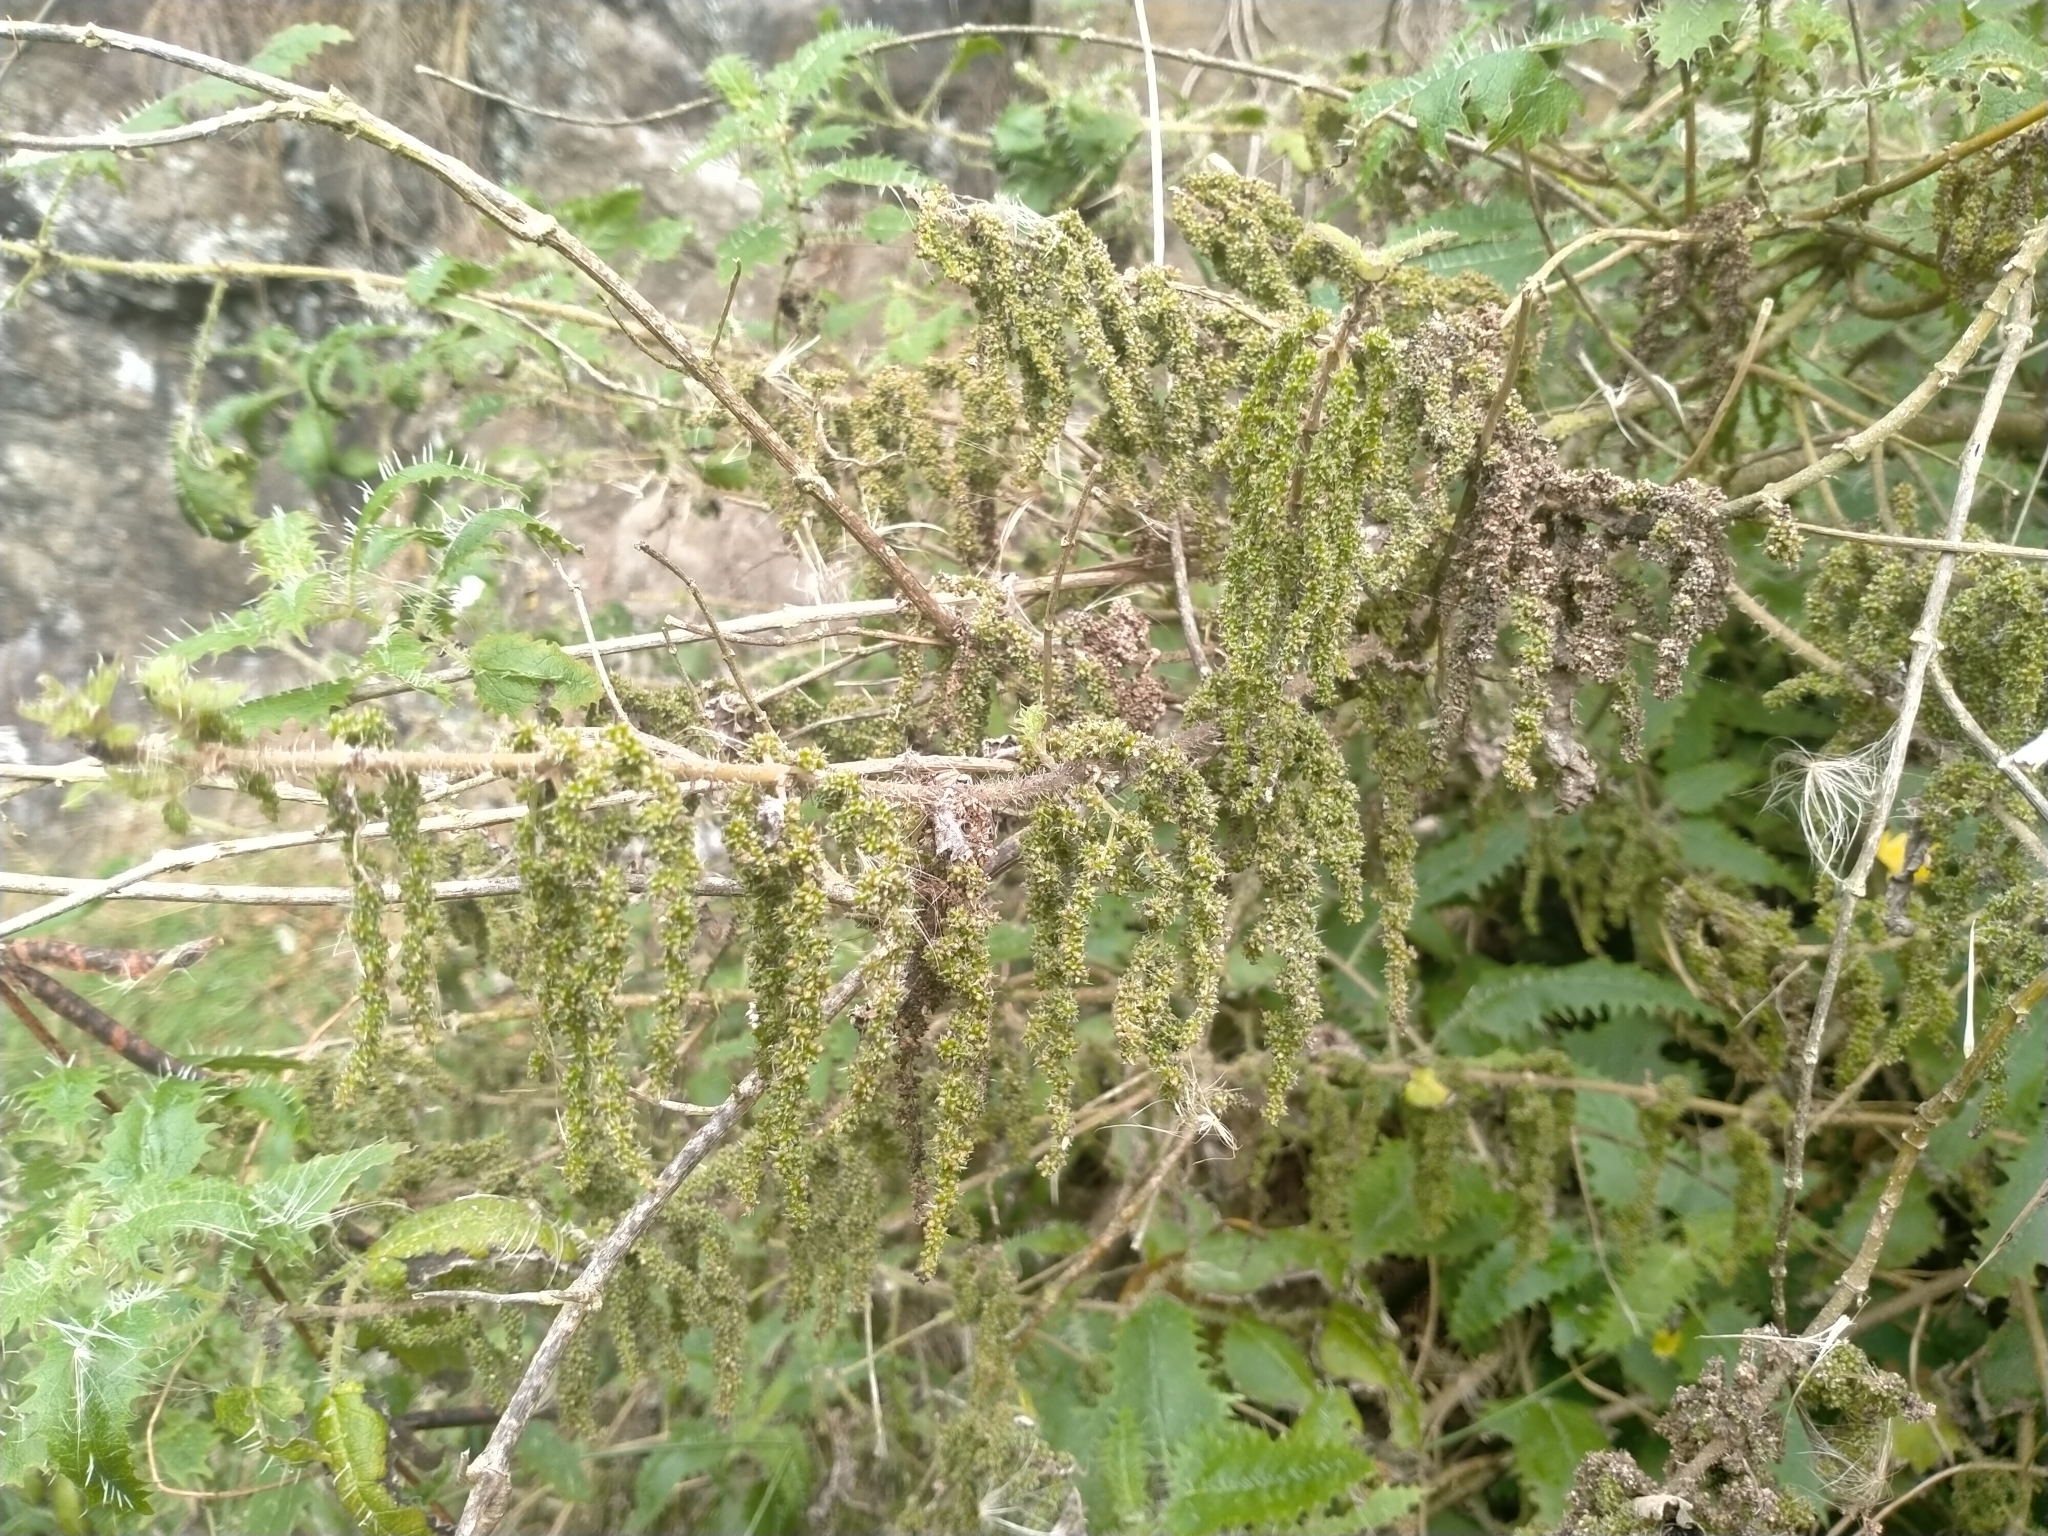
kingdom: Plantae
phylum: Tracheophyta
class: Magnoliopsida
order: Rosales
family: Urticaceae
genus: Urtica
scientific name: Urtica ferox
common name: Tree nettle
